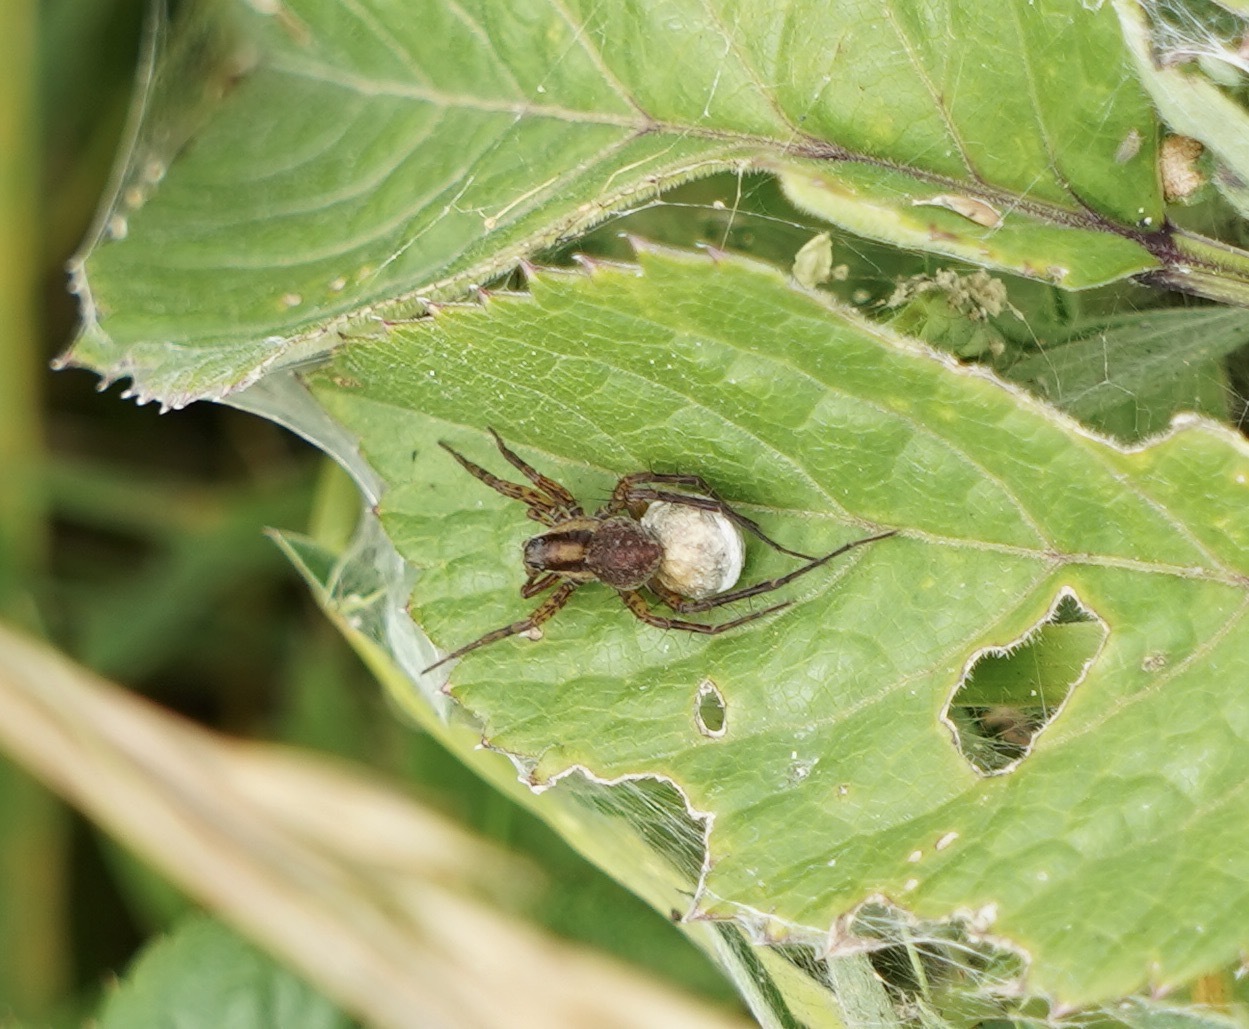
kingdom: Animalia
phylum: Arthropoda
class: Arachnida
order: Araneae
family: Lycosidae
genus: Pardosa
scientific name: Pardosa nigriceps
